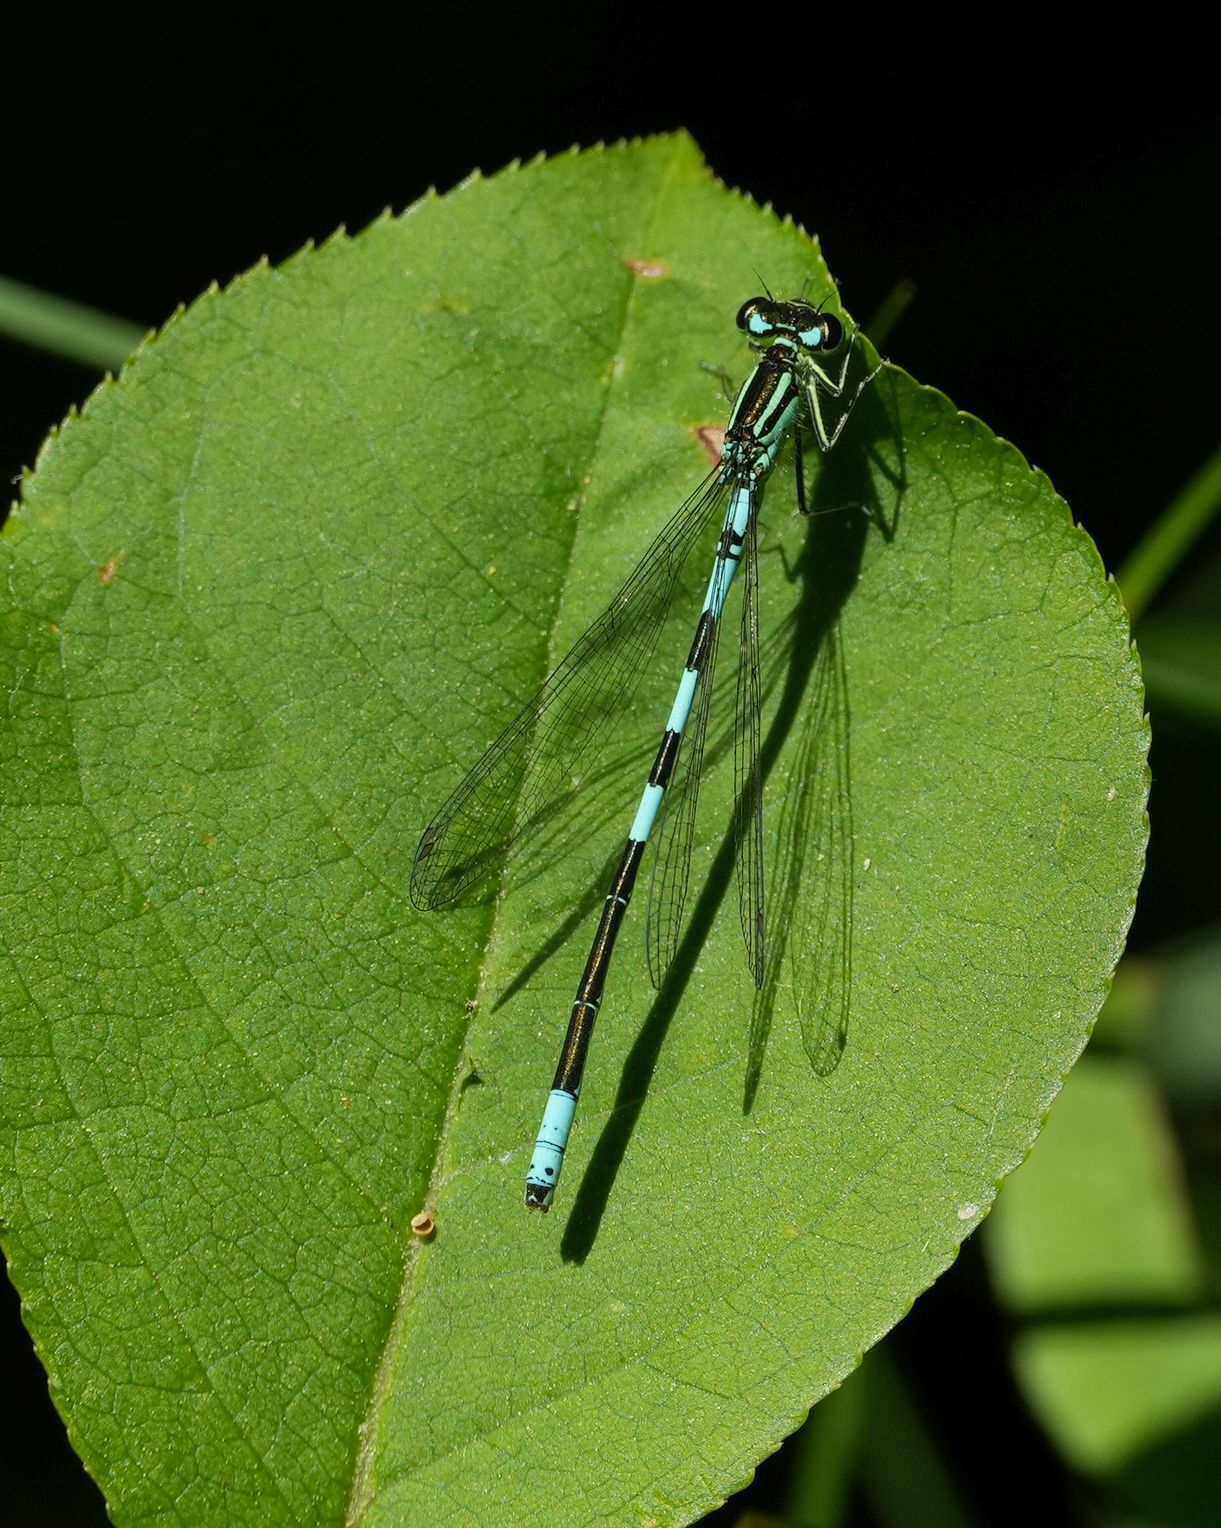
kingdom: Animalia
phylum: Arthropoda
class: Insecta
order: Odonata
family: Coenagrionidae
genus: Coenagrion
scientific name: Coenagrion resolutum
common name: Taiga bluet
